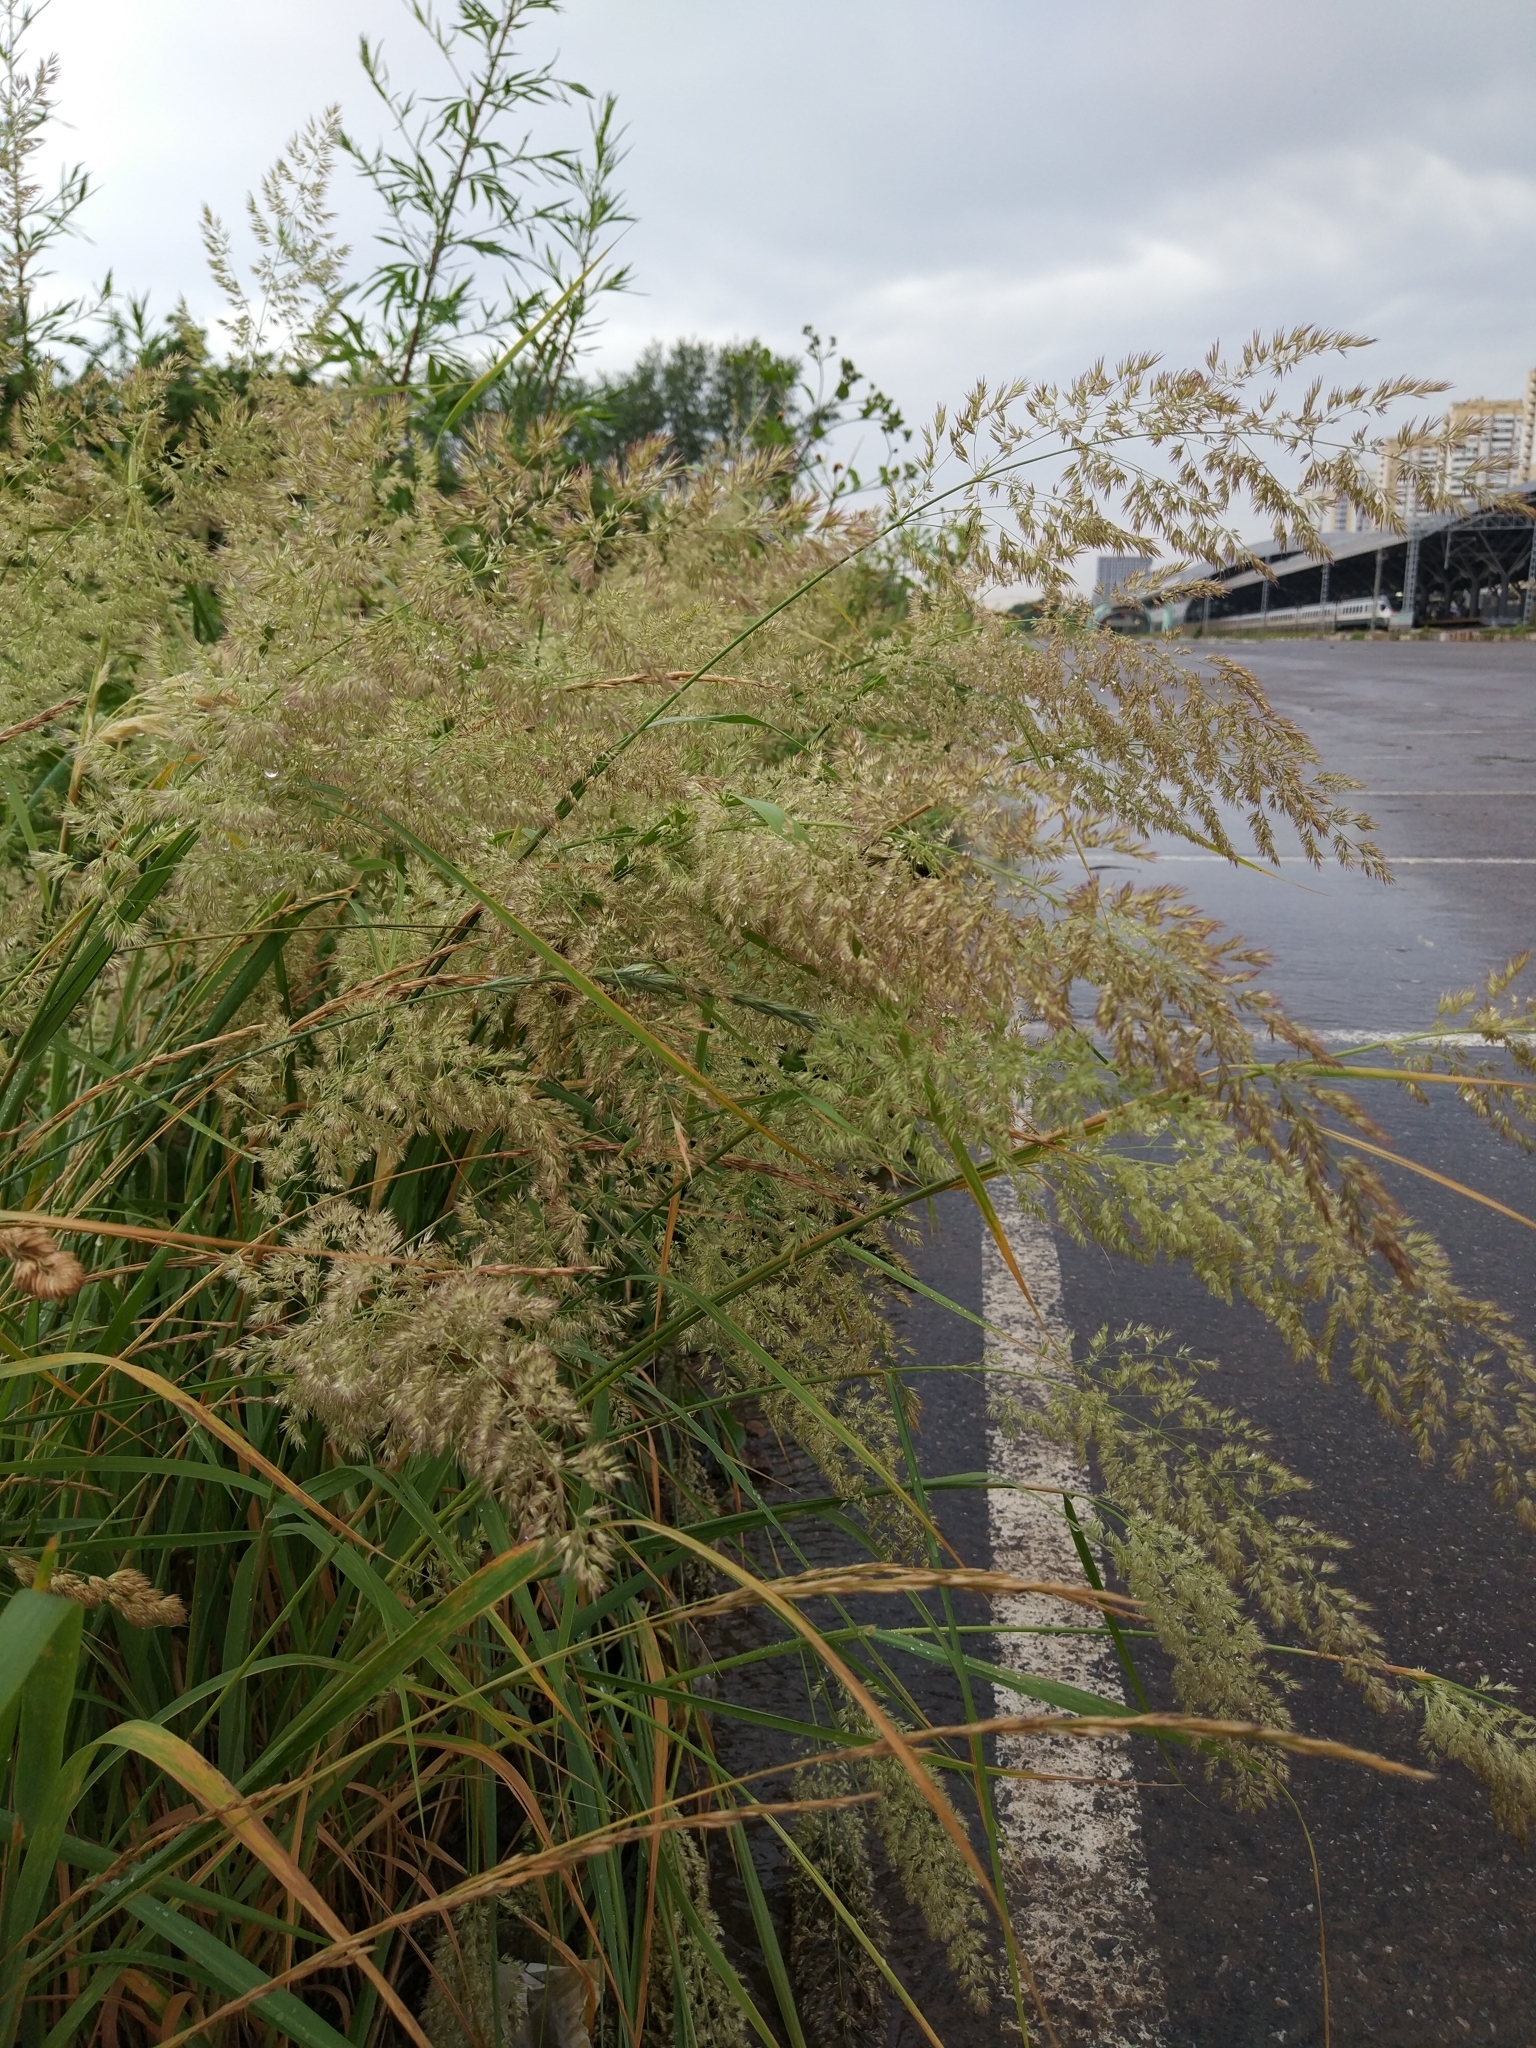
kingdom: Plantae
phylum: Tracheophyta
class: Liliopsida
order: Poales
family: Poaceae
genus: Calamagrostis
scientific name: Calamagrostis epigejos
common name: Wood small-reed
